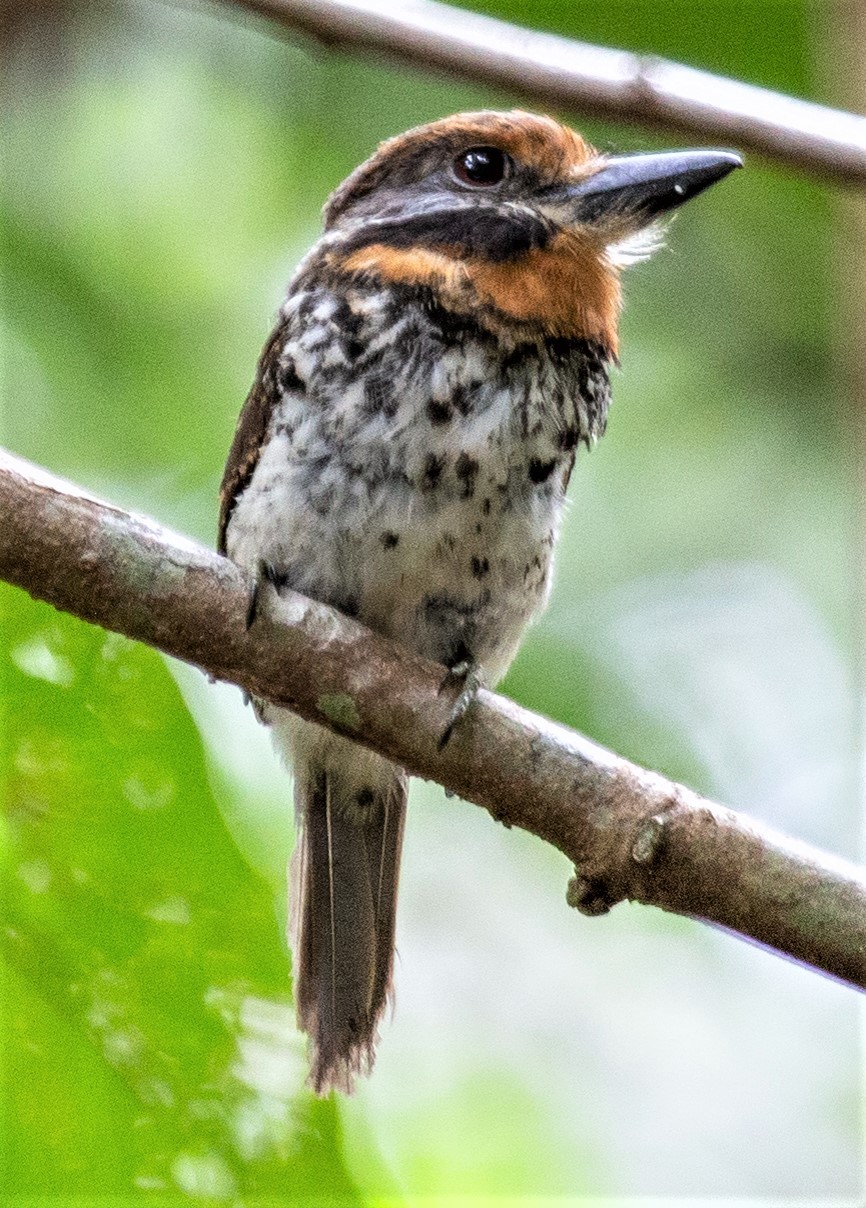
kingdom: Animalia
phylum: Chordata
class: Aves
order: Piciformes
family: Bucconidae
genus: Bucco
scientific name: Bucco tamatia
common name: Spotted puffbird
